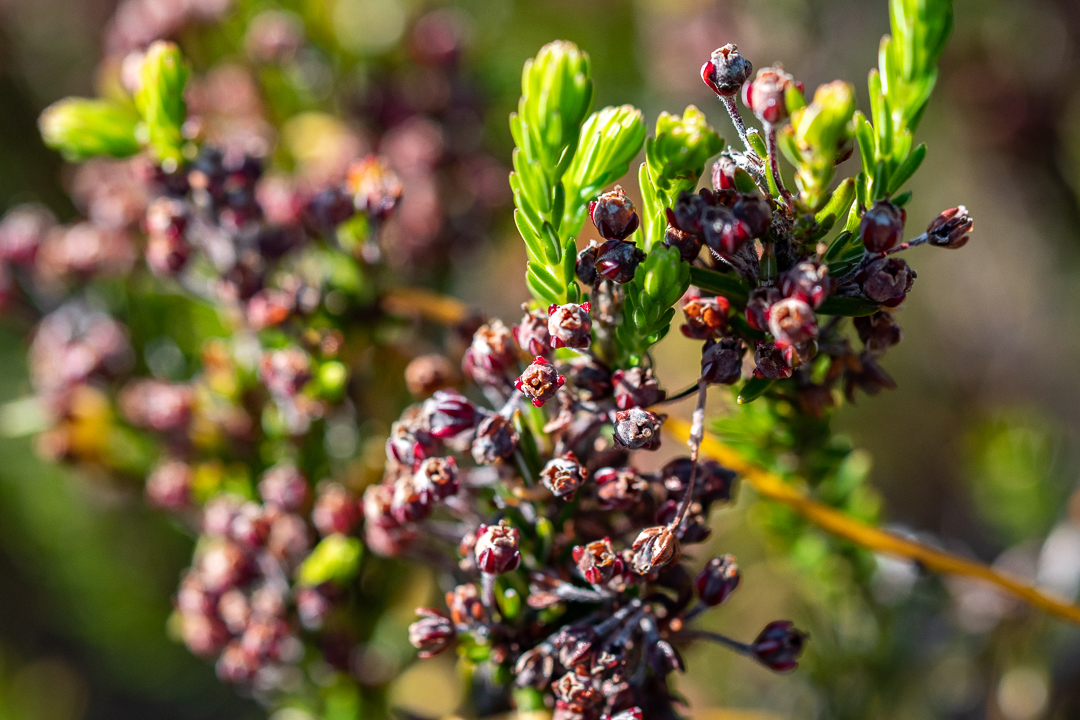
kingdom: Plantae
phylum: Tracheophyta
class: Magnoliopsida
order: Ericales
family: Ericaceae
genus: Erica
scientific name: Erica pulchella
